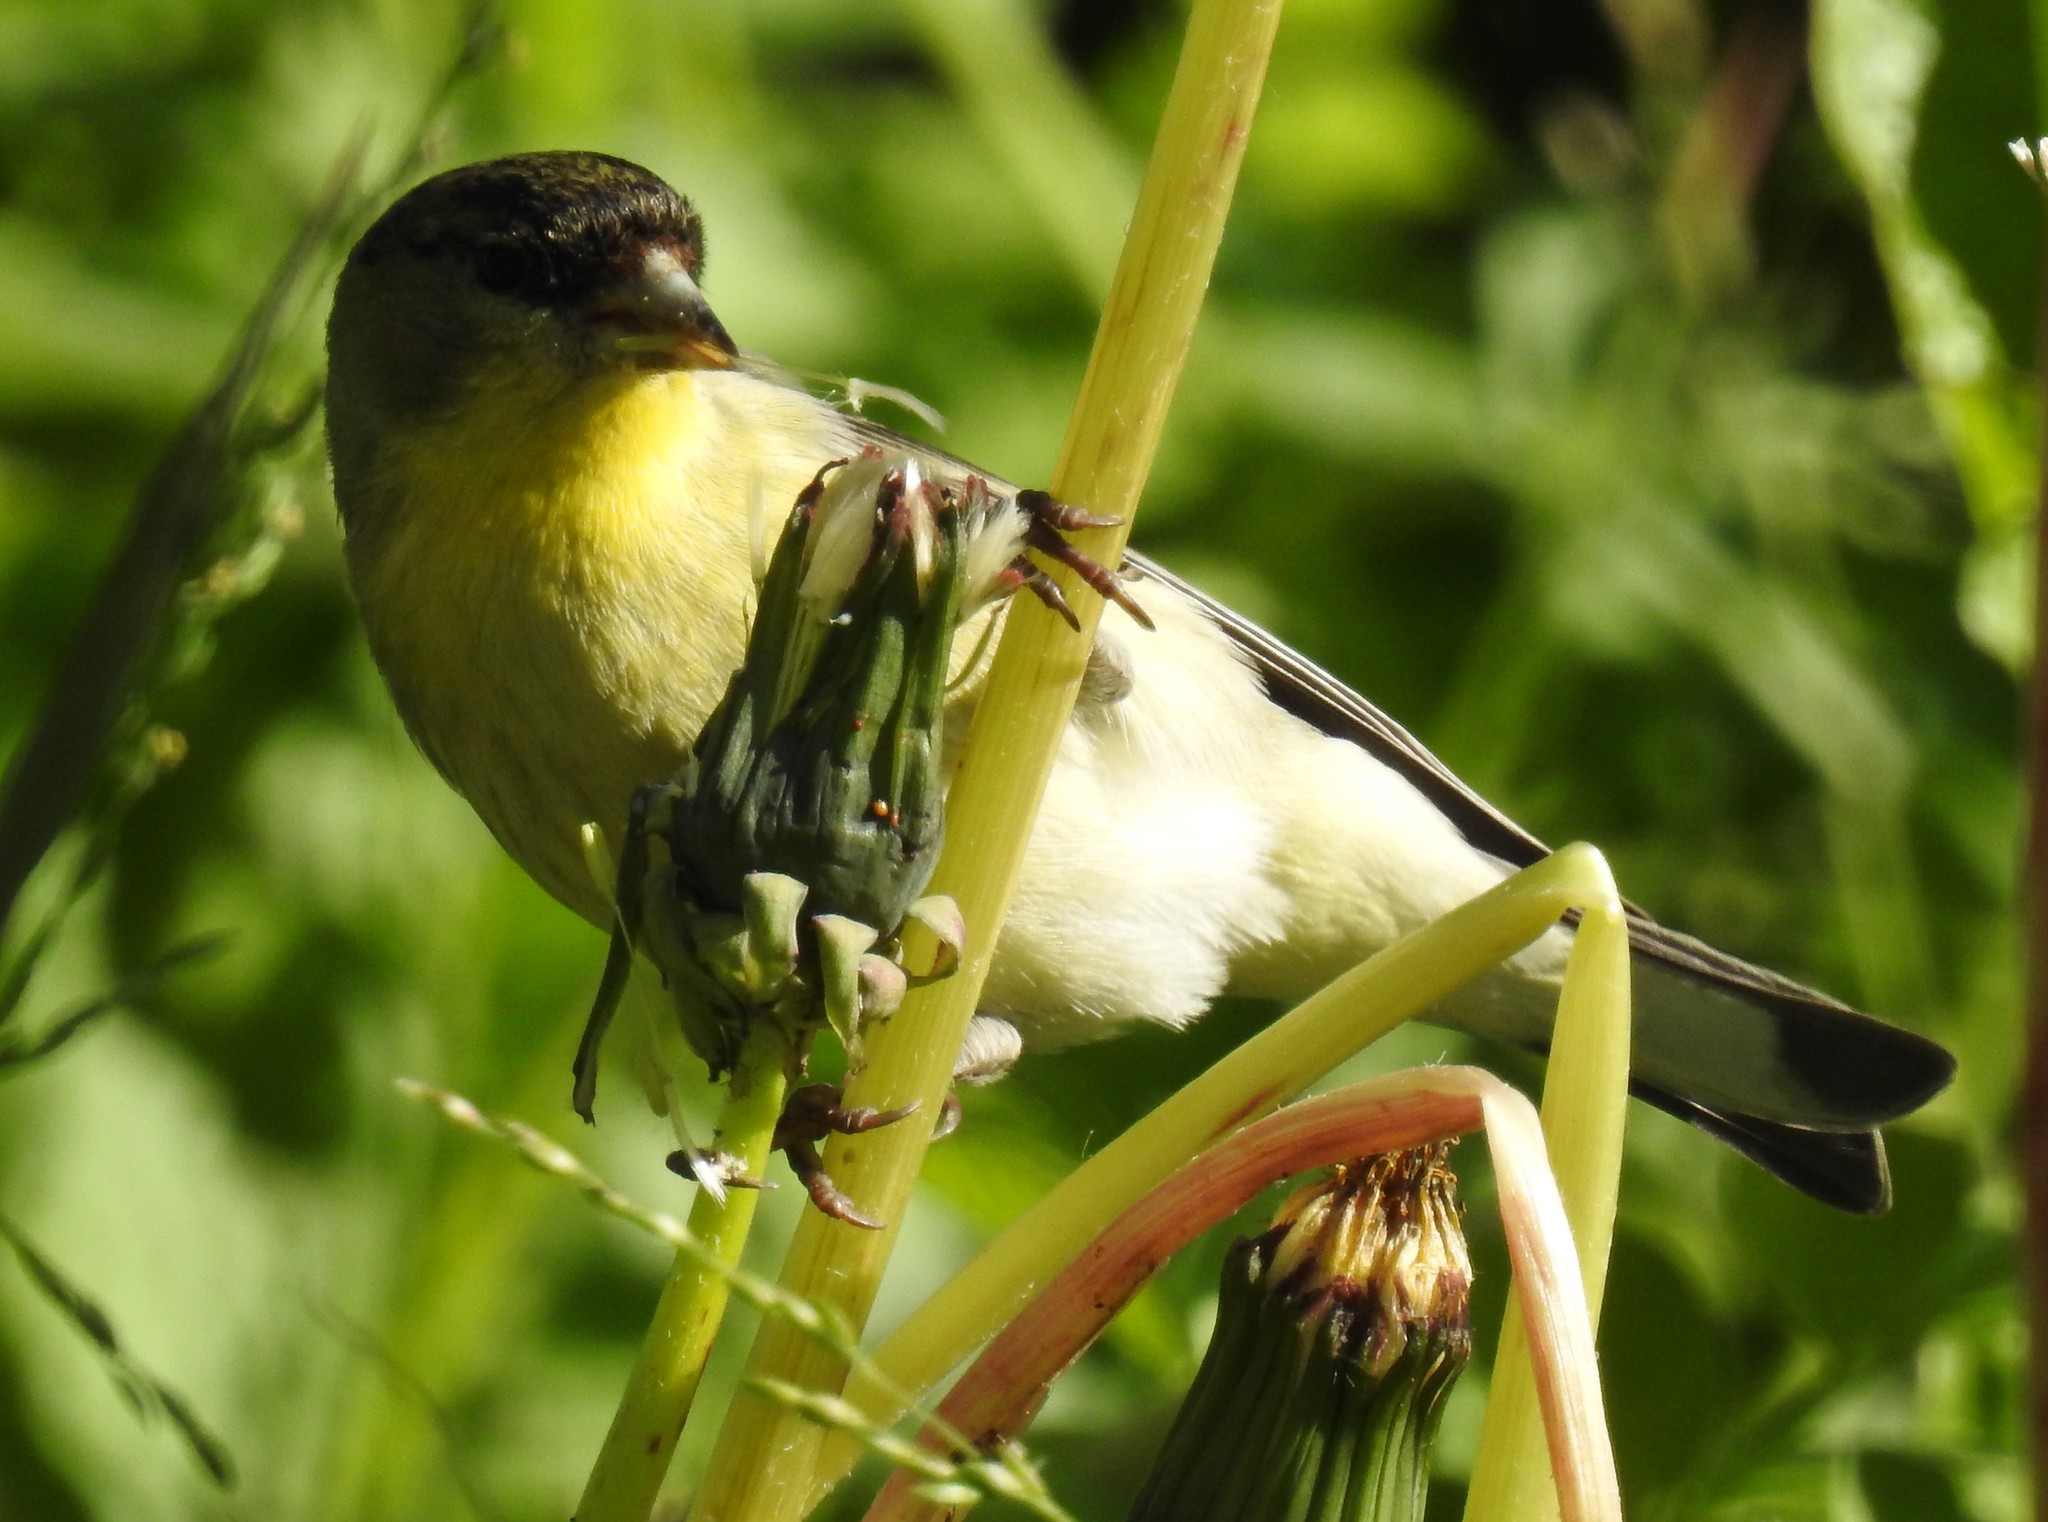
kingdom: Animalia
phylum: Chordata
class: Aves
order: Passeriformes
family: Fringillidae
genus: Spinus
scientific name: Spinus psaltria
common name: Lesser goldfinch
